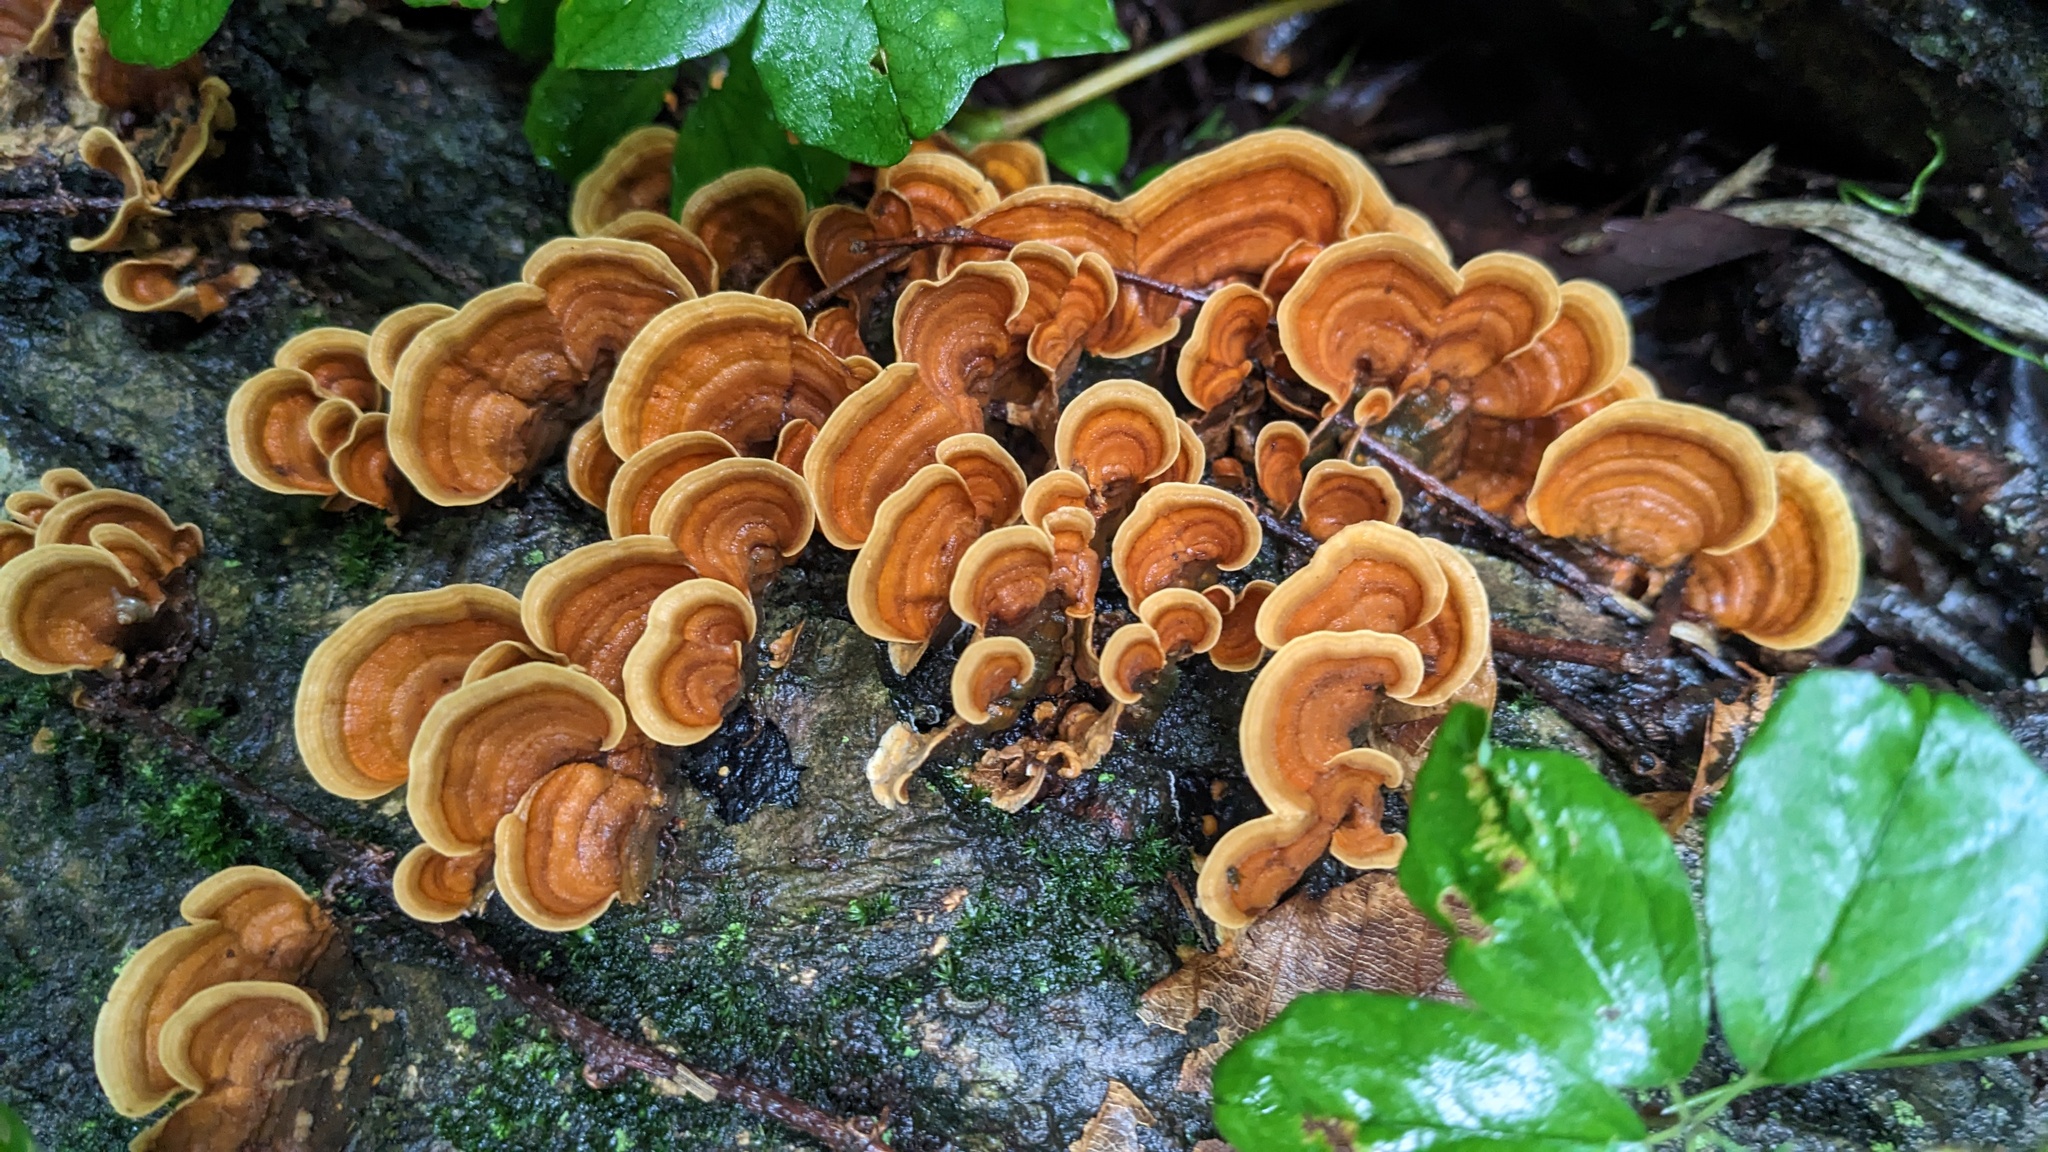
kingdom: Fungi
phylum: Basidiomycota
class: Agaricomycetes
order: Russulales
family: Stereaceae
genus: Stereum
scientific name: Stereum ostrea
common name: False turkeytail
